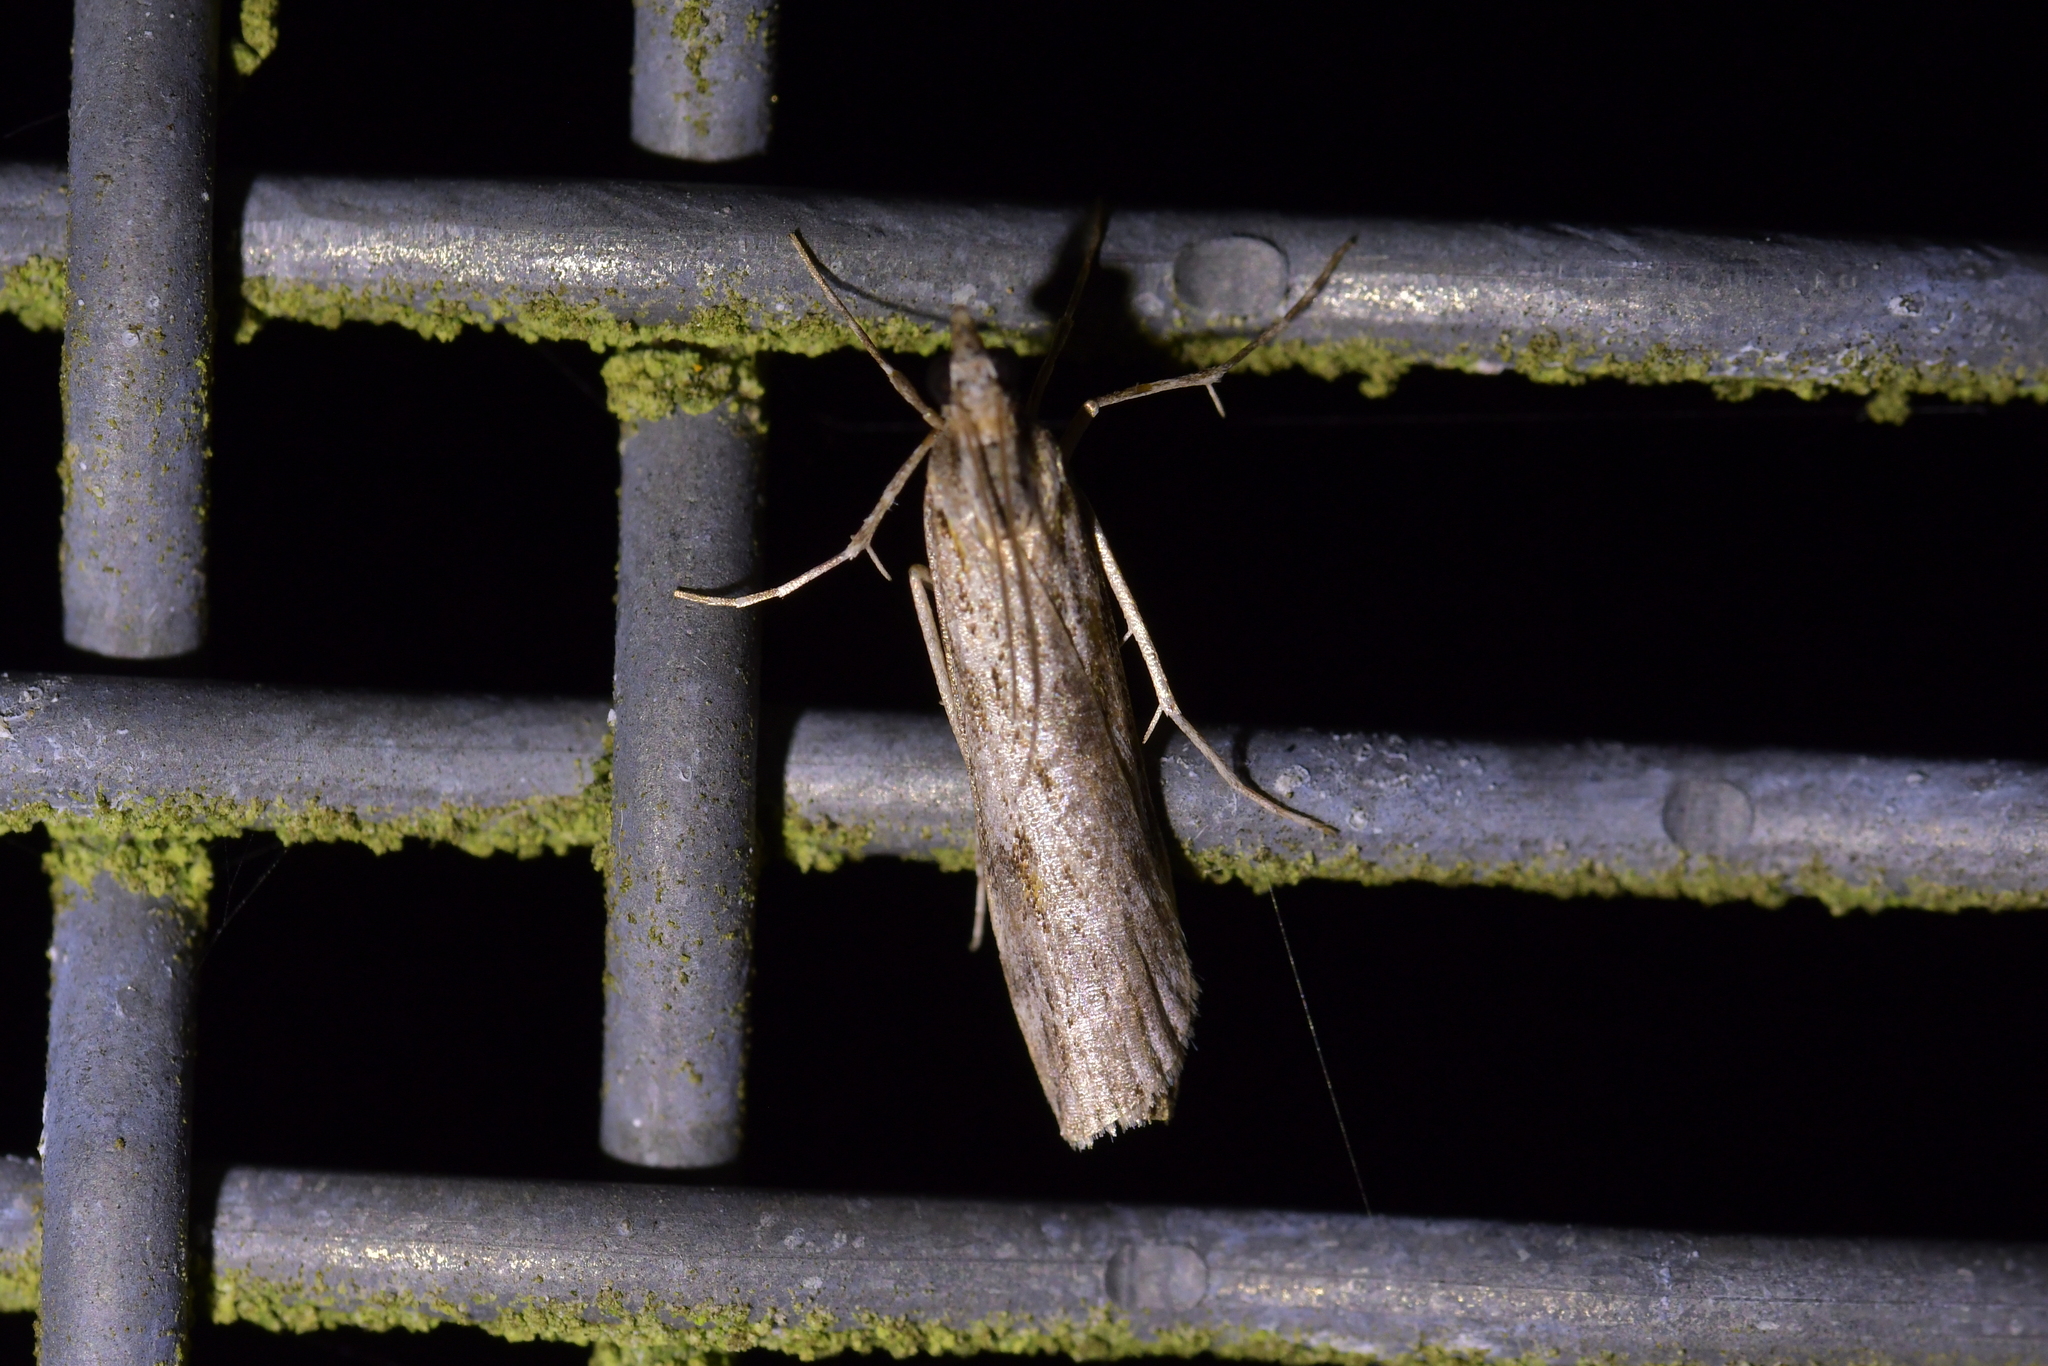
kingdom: Animalia
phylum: Arthropoda
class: Insecta
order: Lepidoptera
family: Crambidae
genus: Scoparia
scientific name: Scoparia halopis
